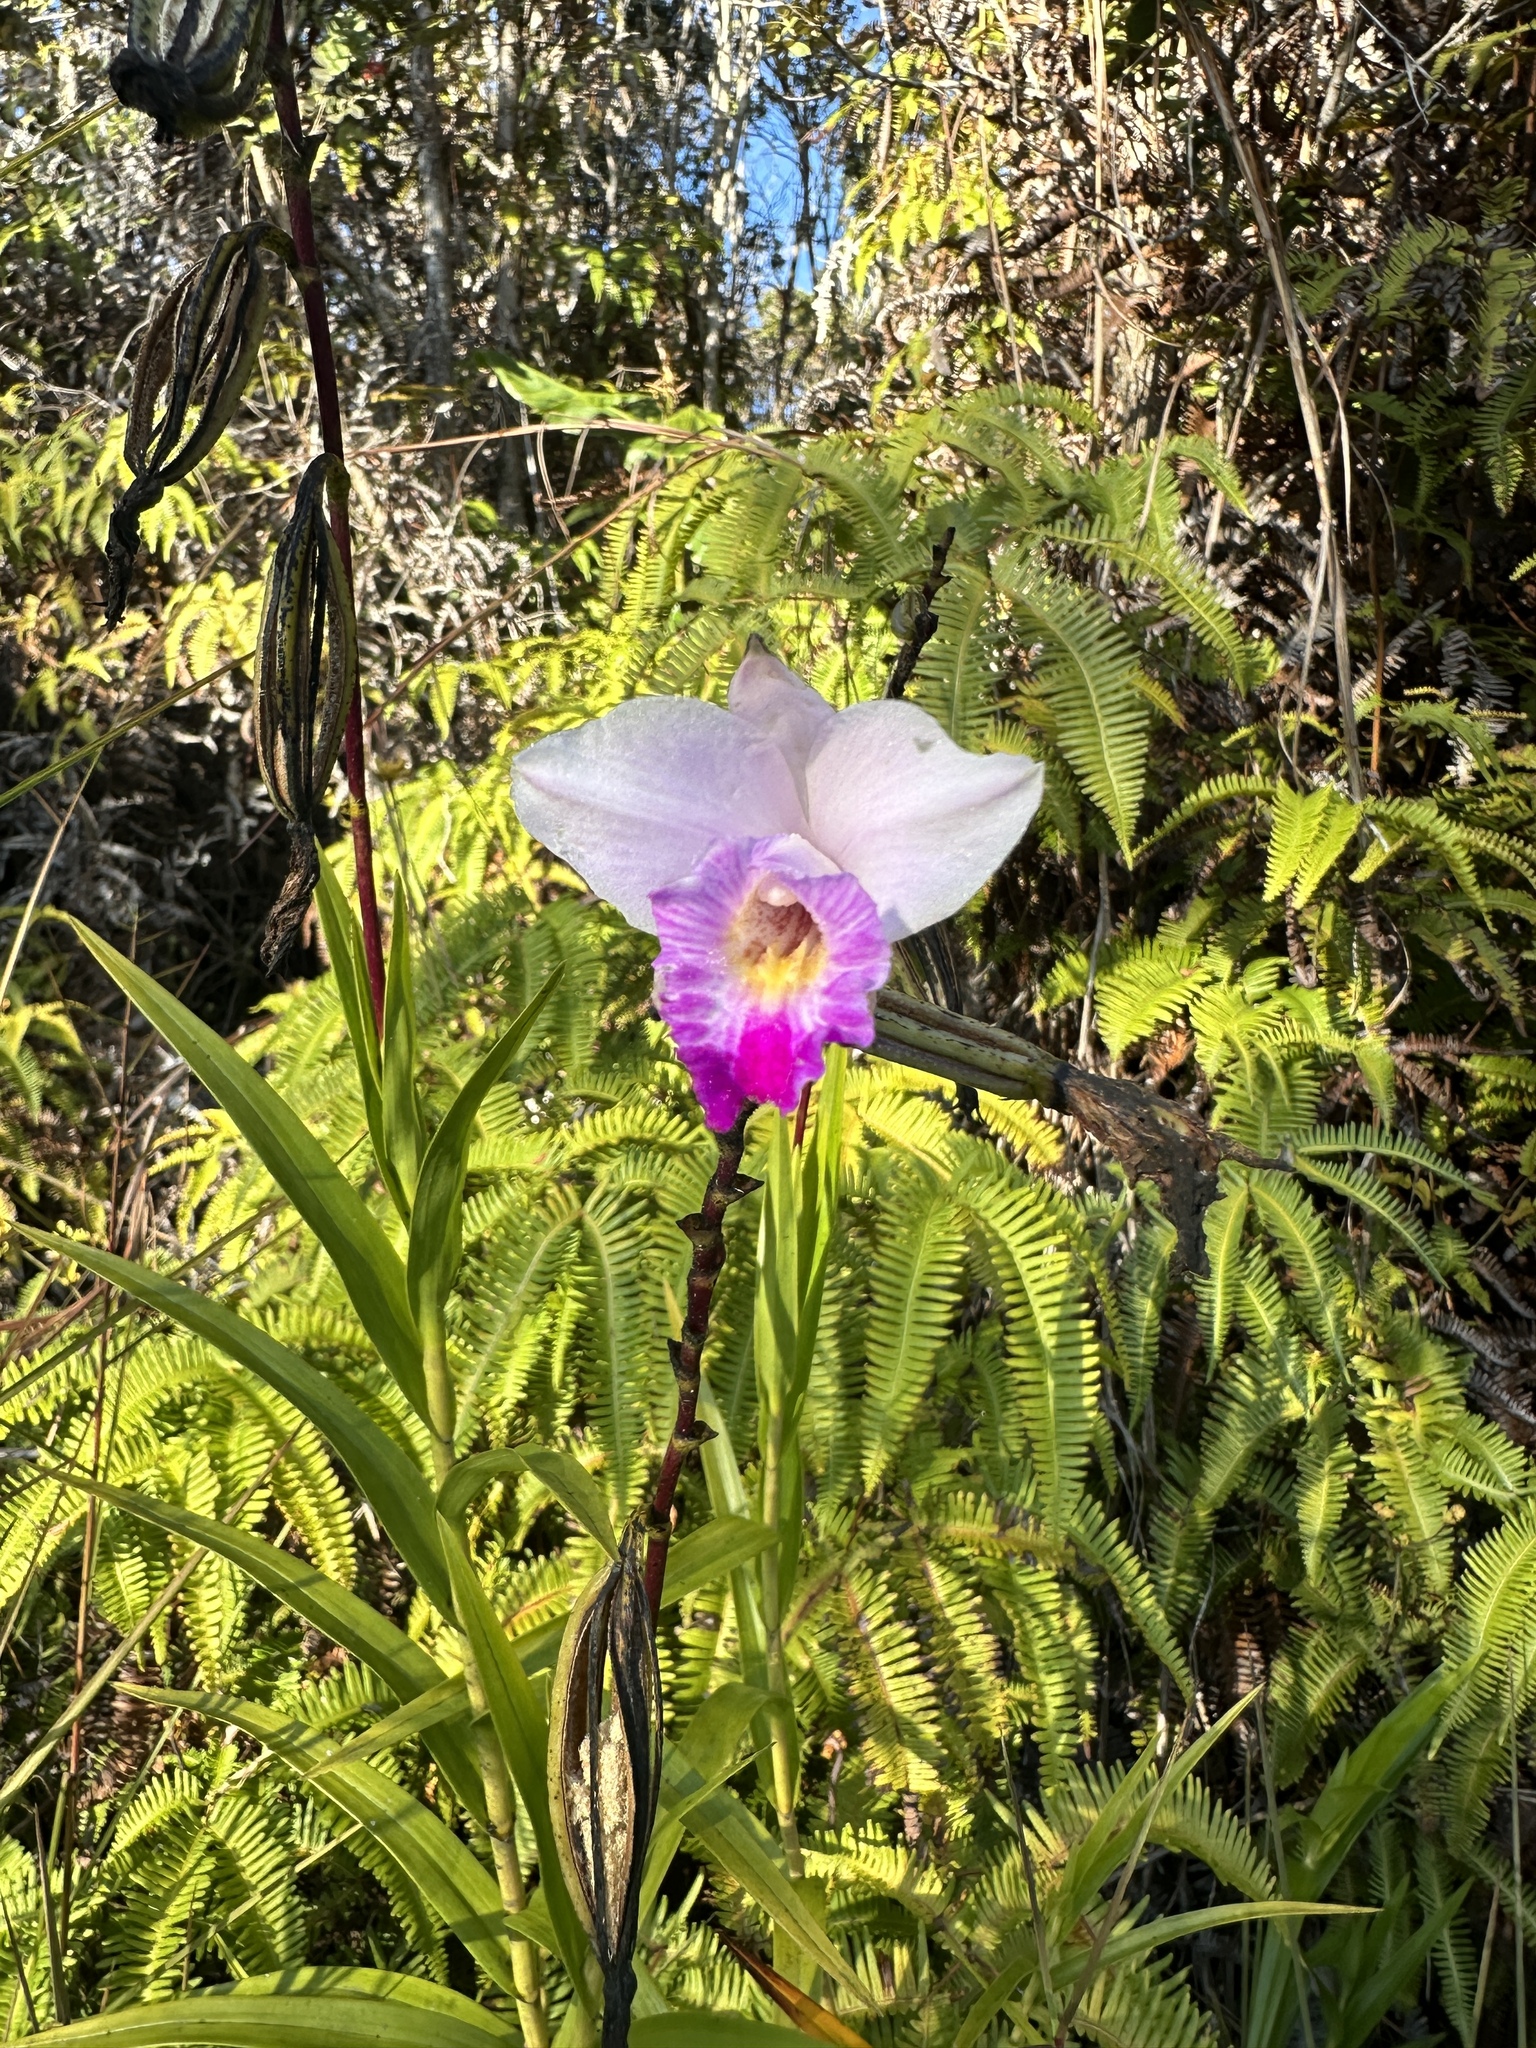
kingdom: Plantae
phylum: Tracheophyta
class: Liliopsida
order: Asparagales
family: Orchidaceae
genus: Arundina
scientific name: Arundina graminifolia
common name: Bamboo orchid
